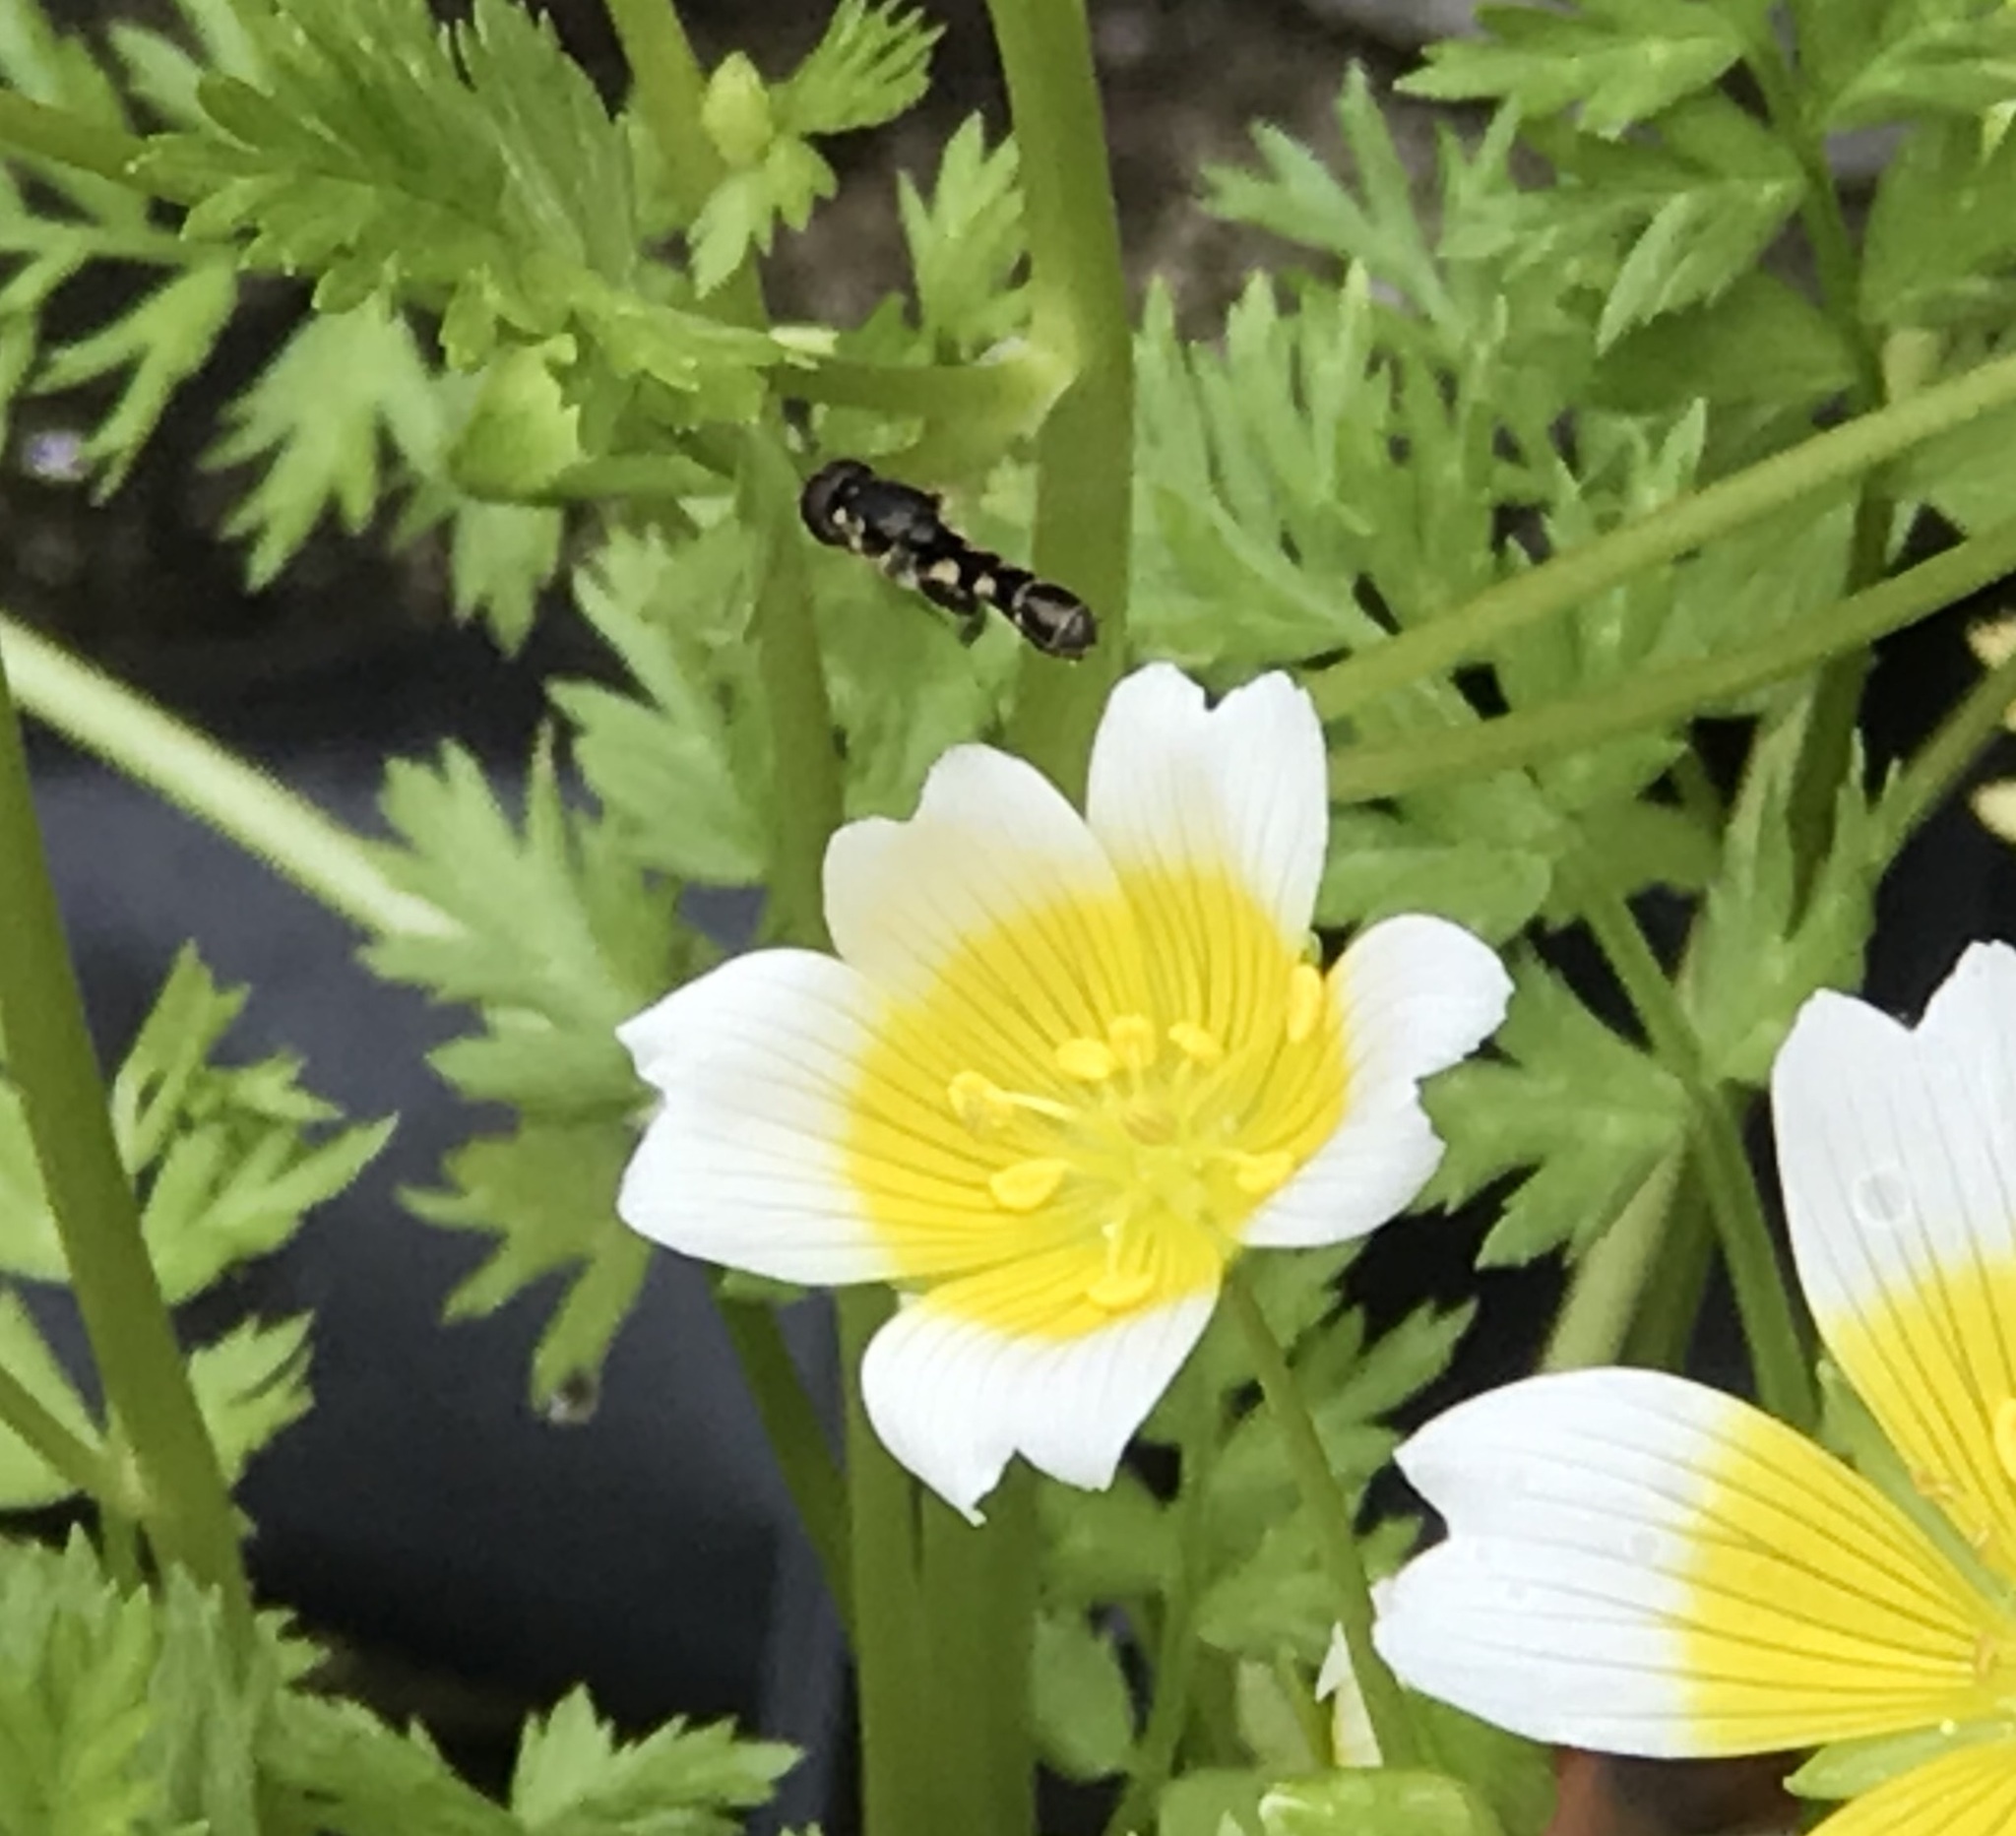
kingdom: Animalia
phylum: Arthropoda
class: Insecta
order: Diptera
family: Syrphidae
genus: Syritta
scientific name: Syritta pipiens
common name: Hover fly
